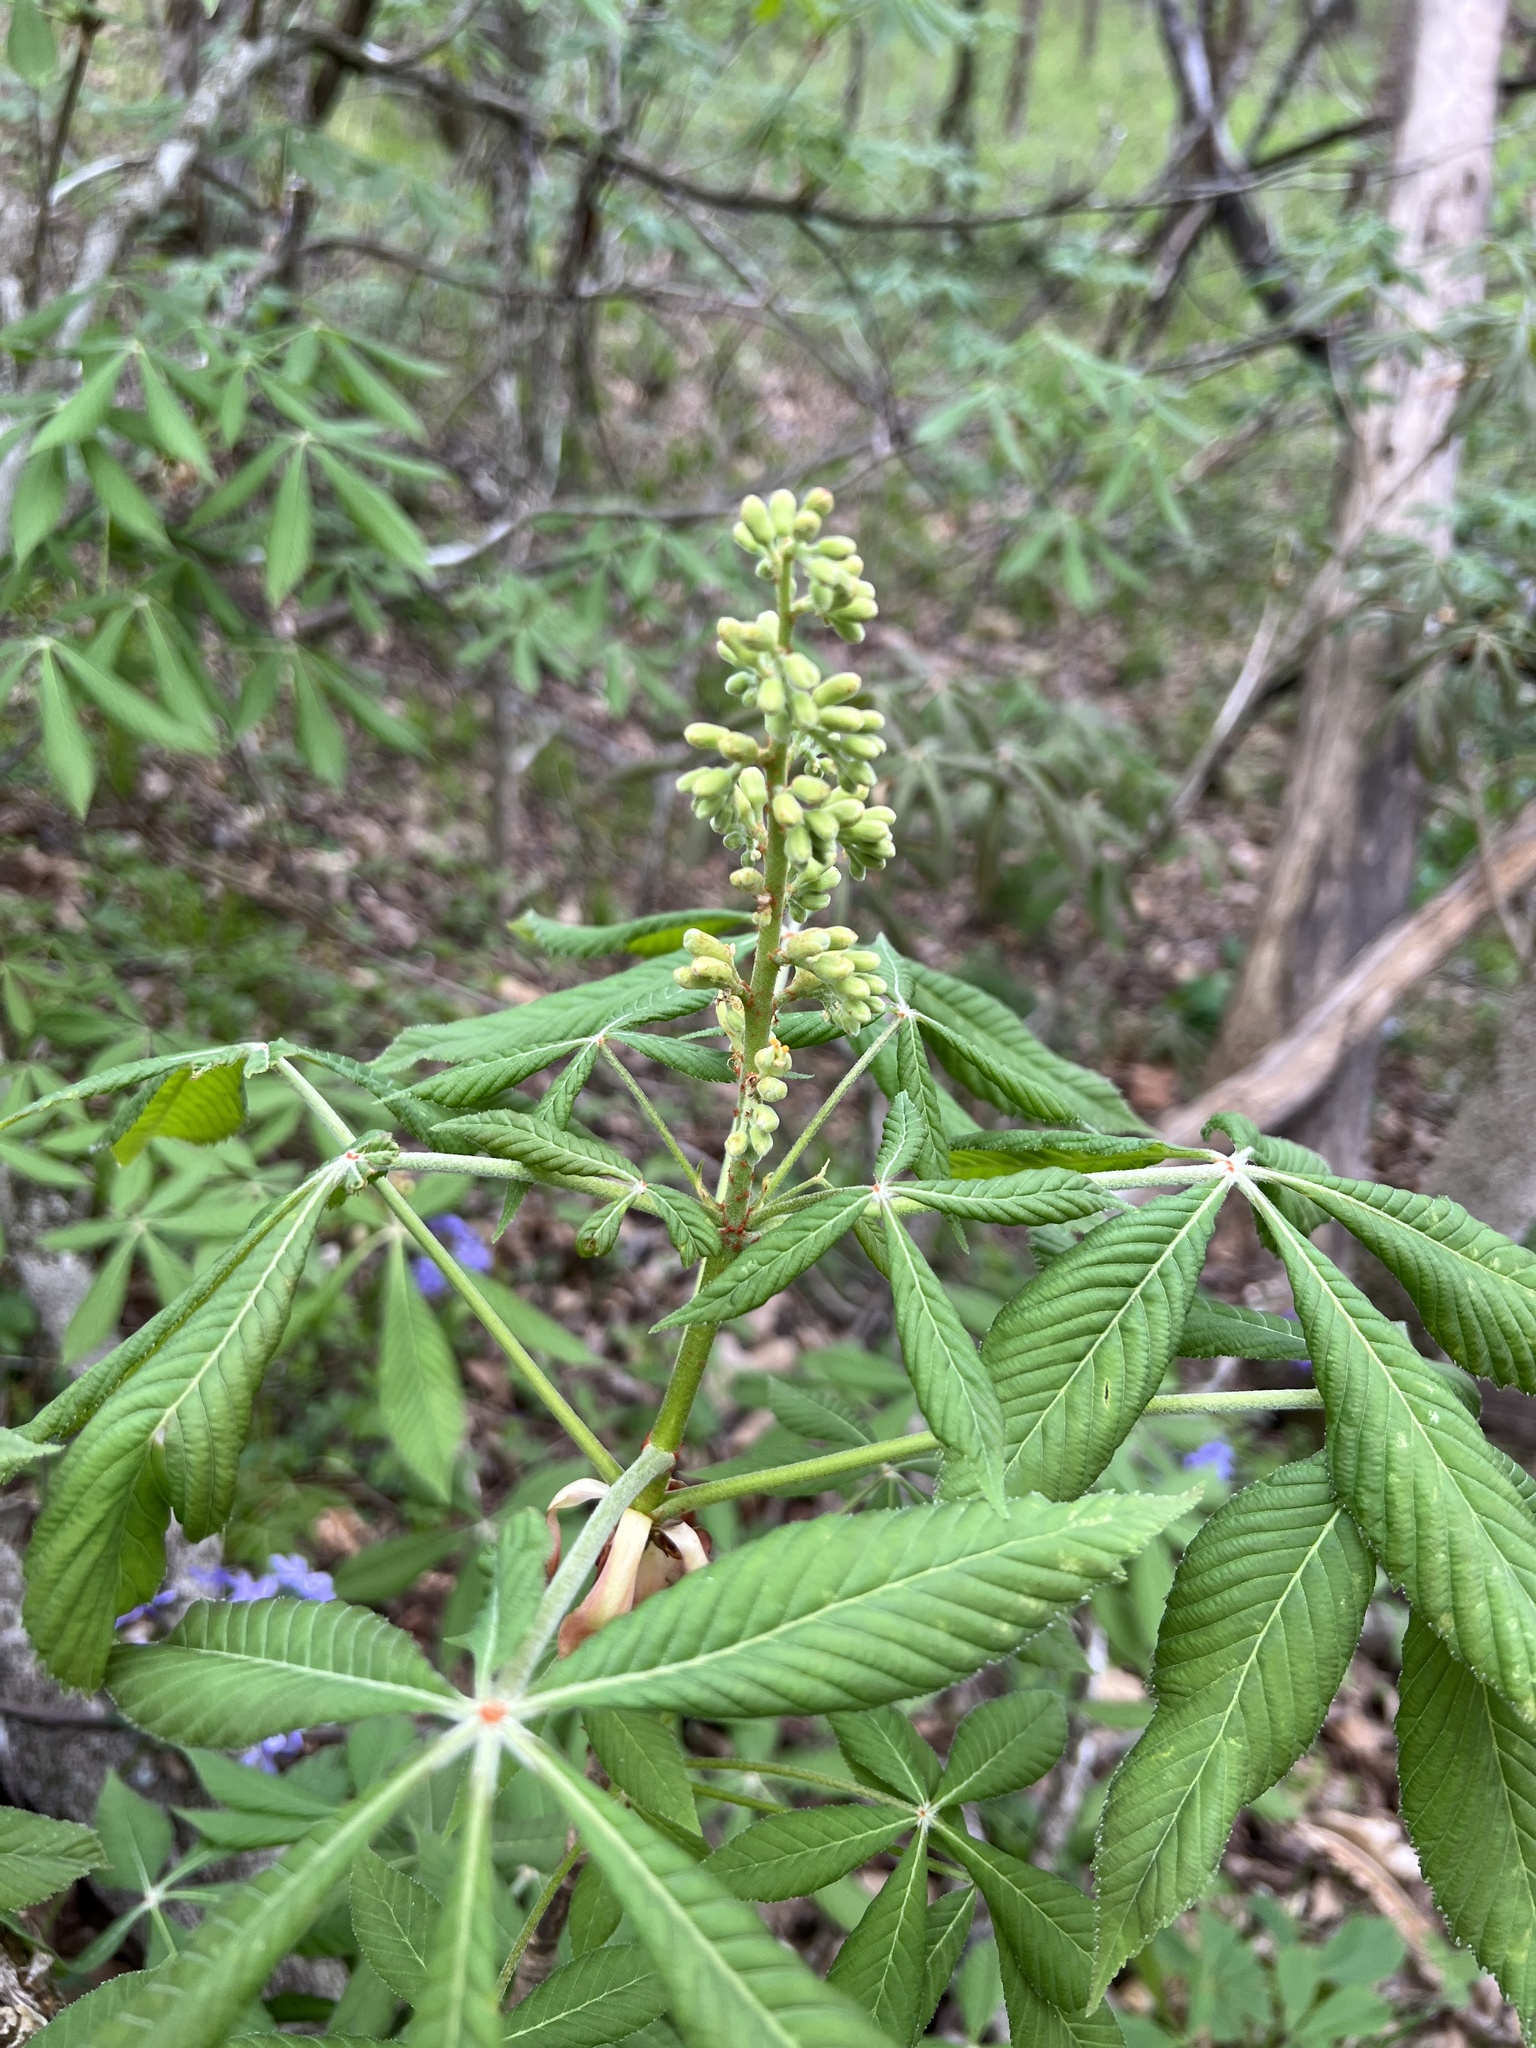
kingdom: Plantae
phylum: Tracheophyta
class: Magnoliopsida
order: Sapindales
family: Sapindaceae
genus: Aesculus
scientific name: Aesculus glabra
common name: Ohio buckeye
